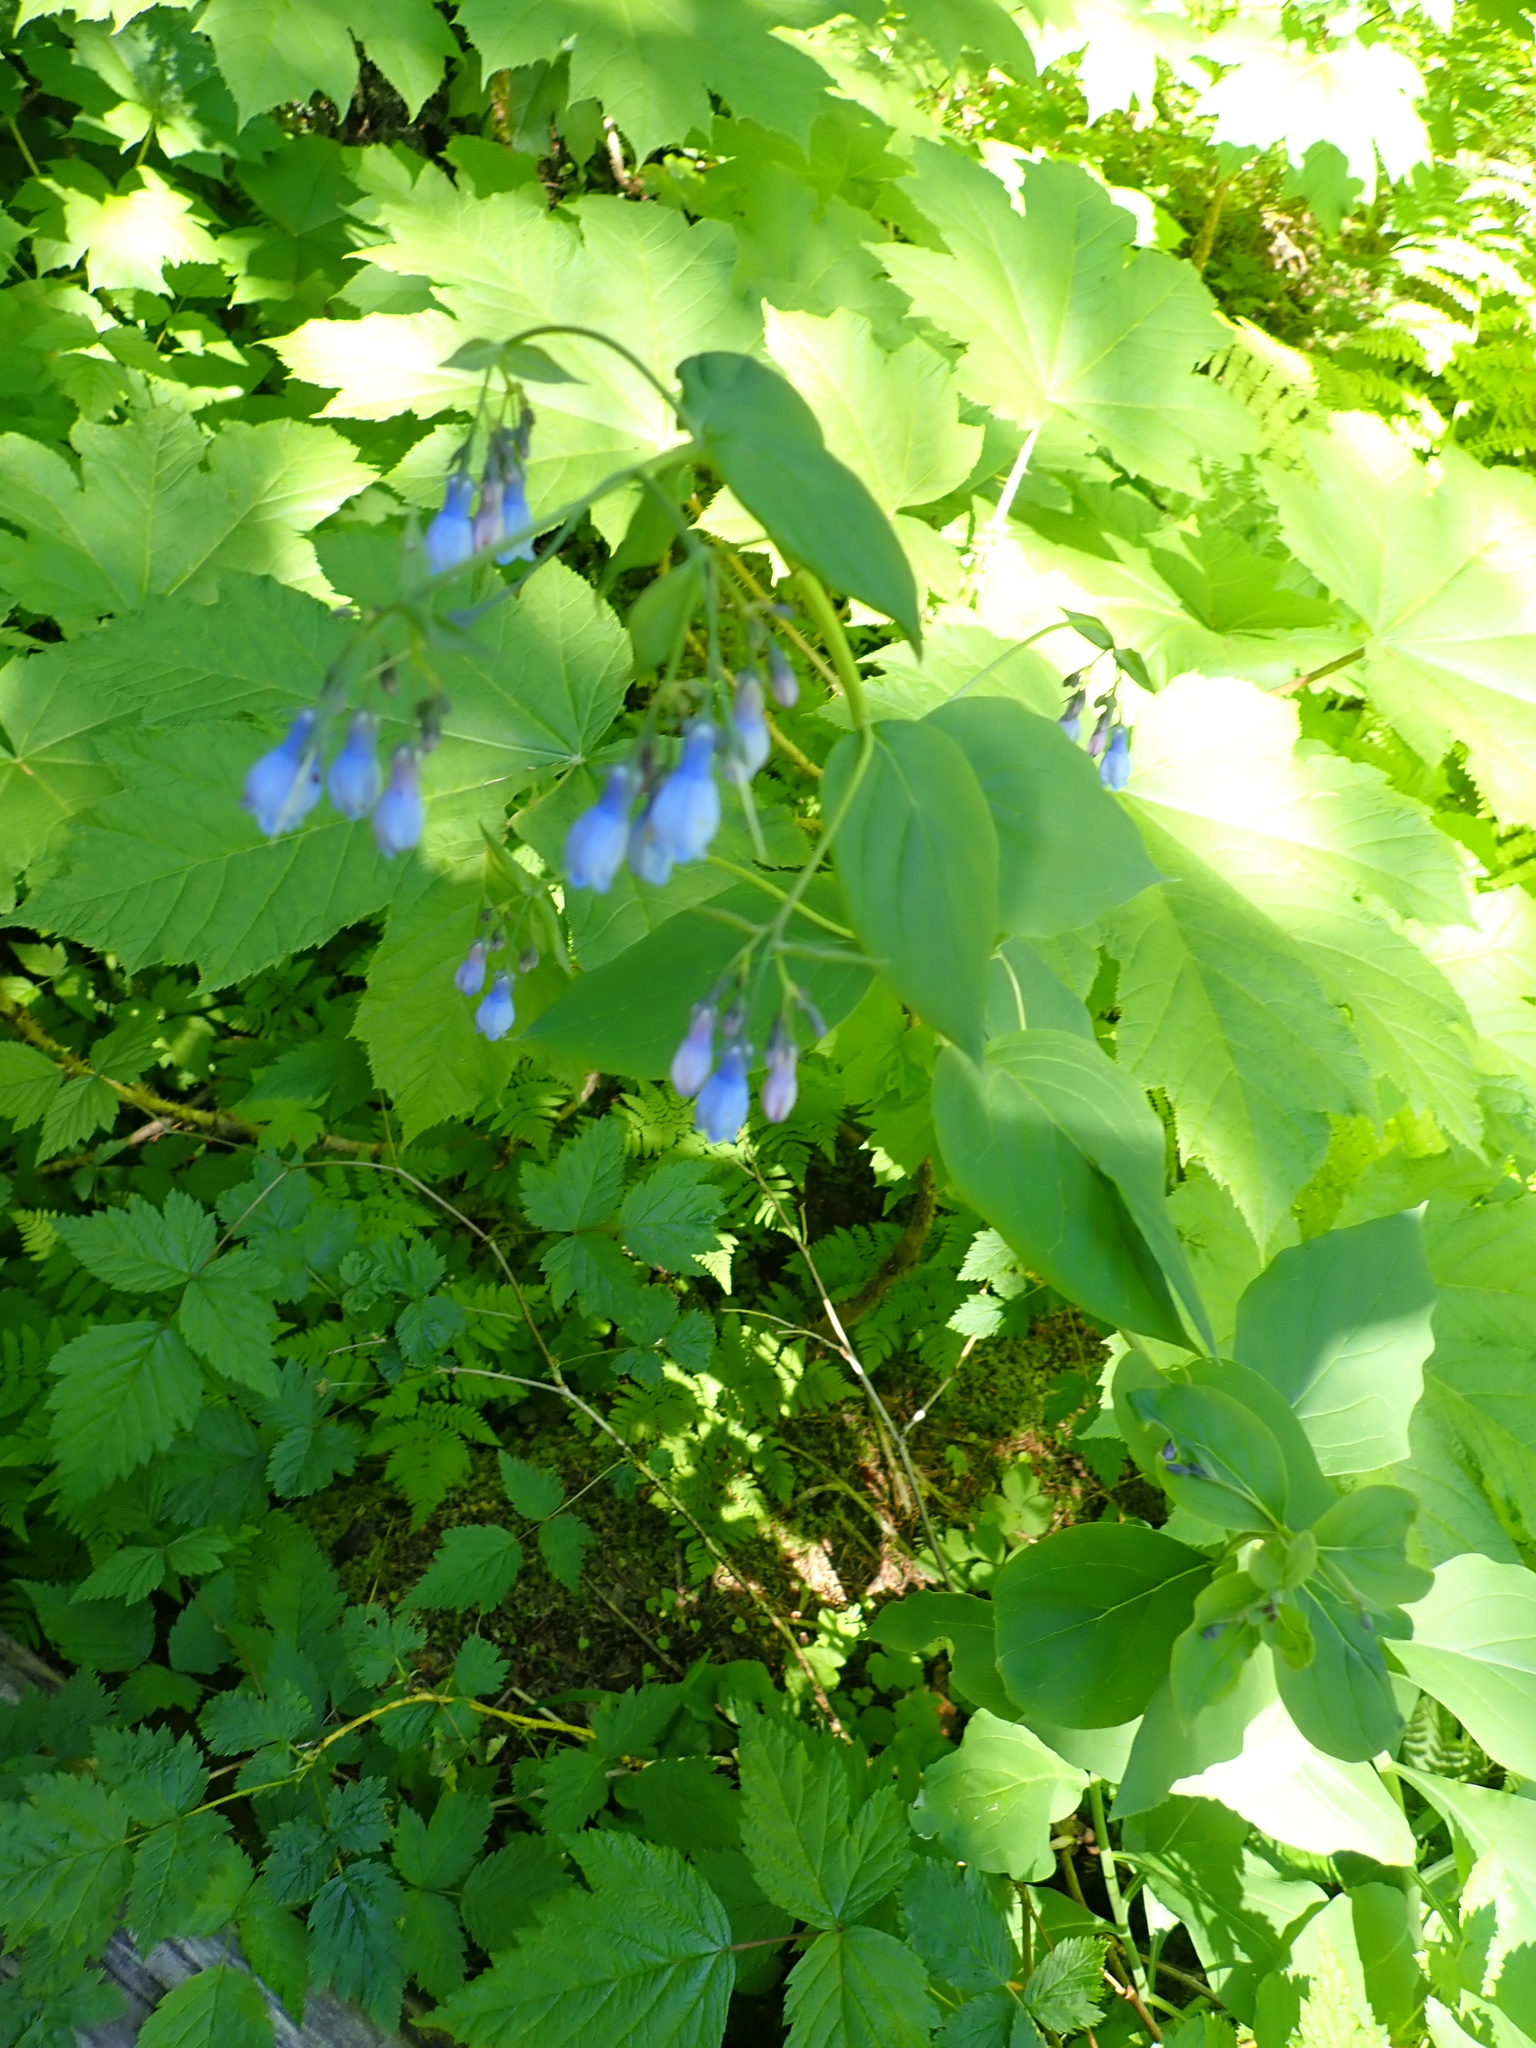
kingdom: Plantae
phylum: Tracheophyta
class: Magnoliopsida
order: Boraginales
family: Boraginaceae
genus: Mertensia
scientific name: Mertensia paniculata
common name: Panicled bluebells
